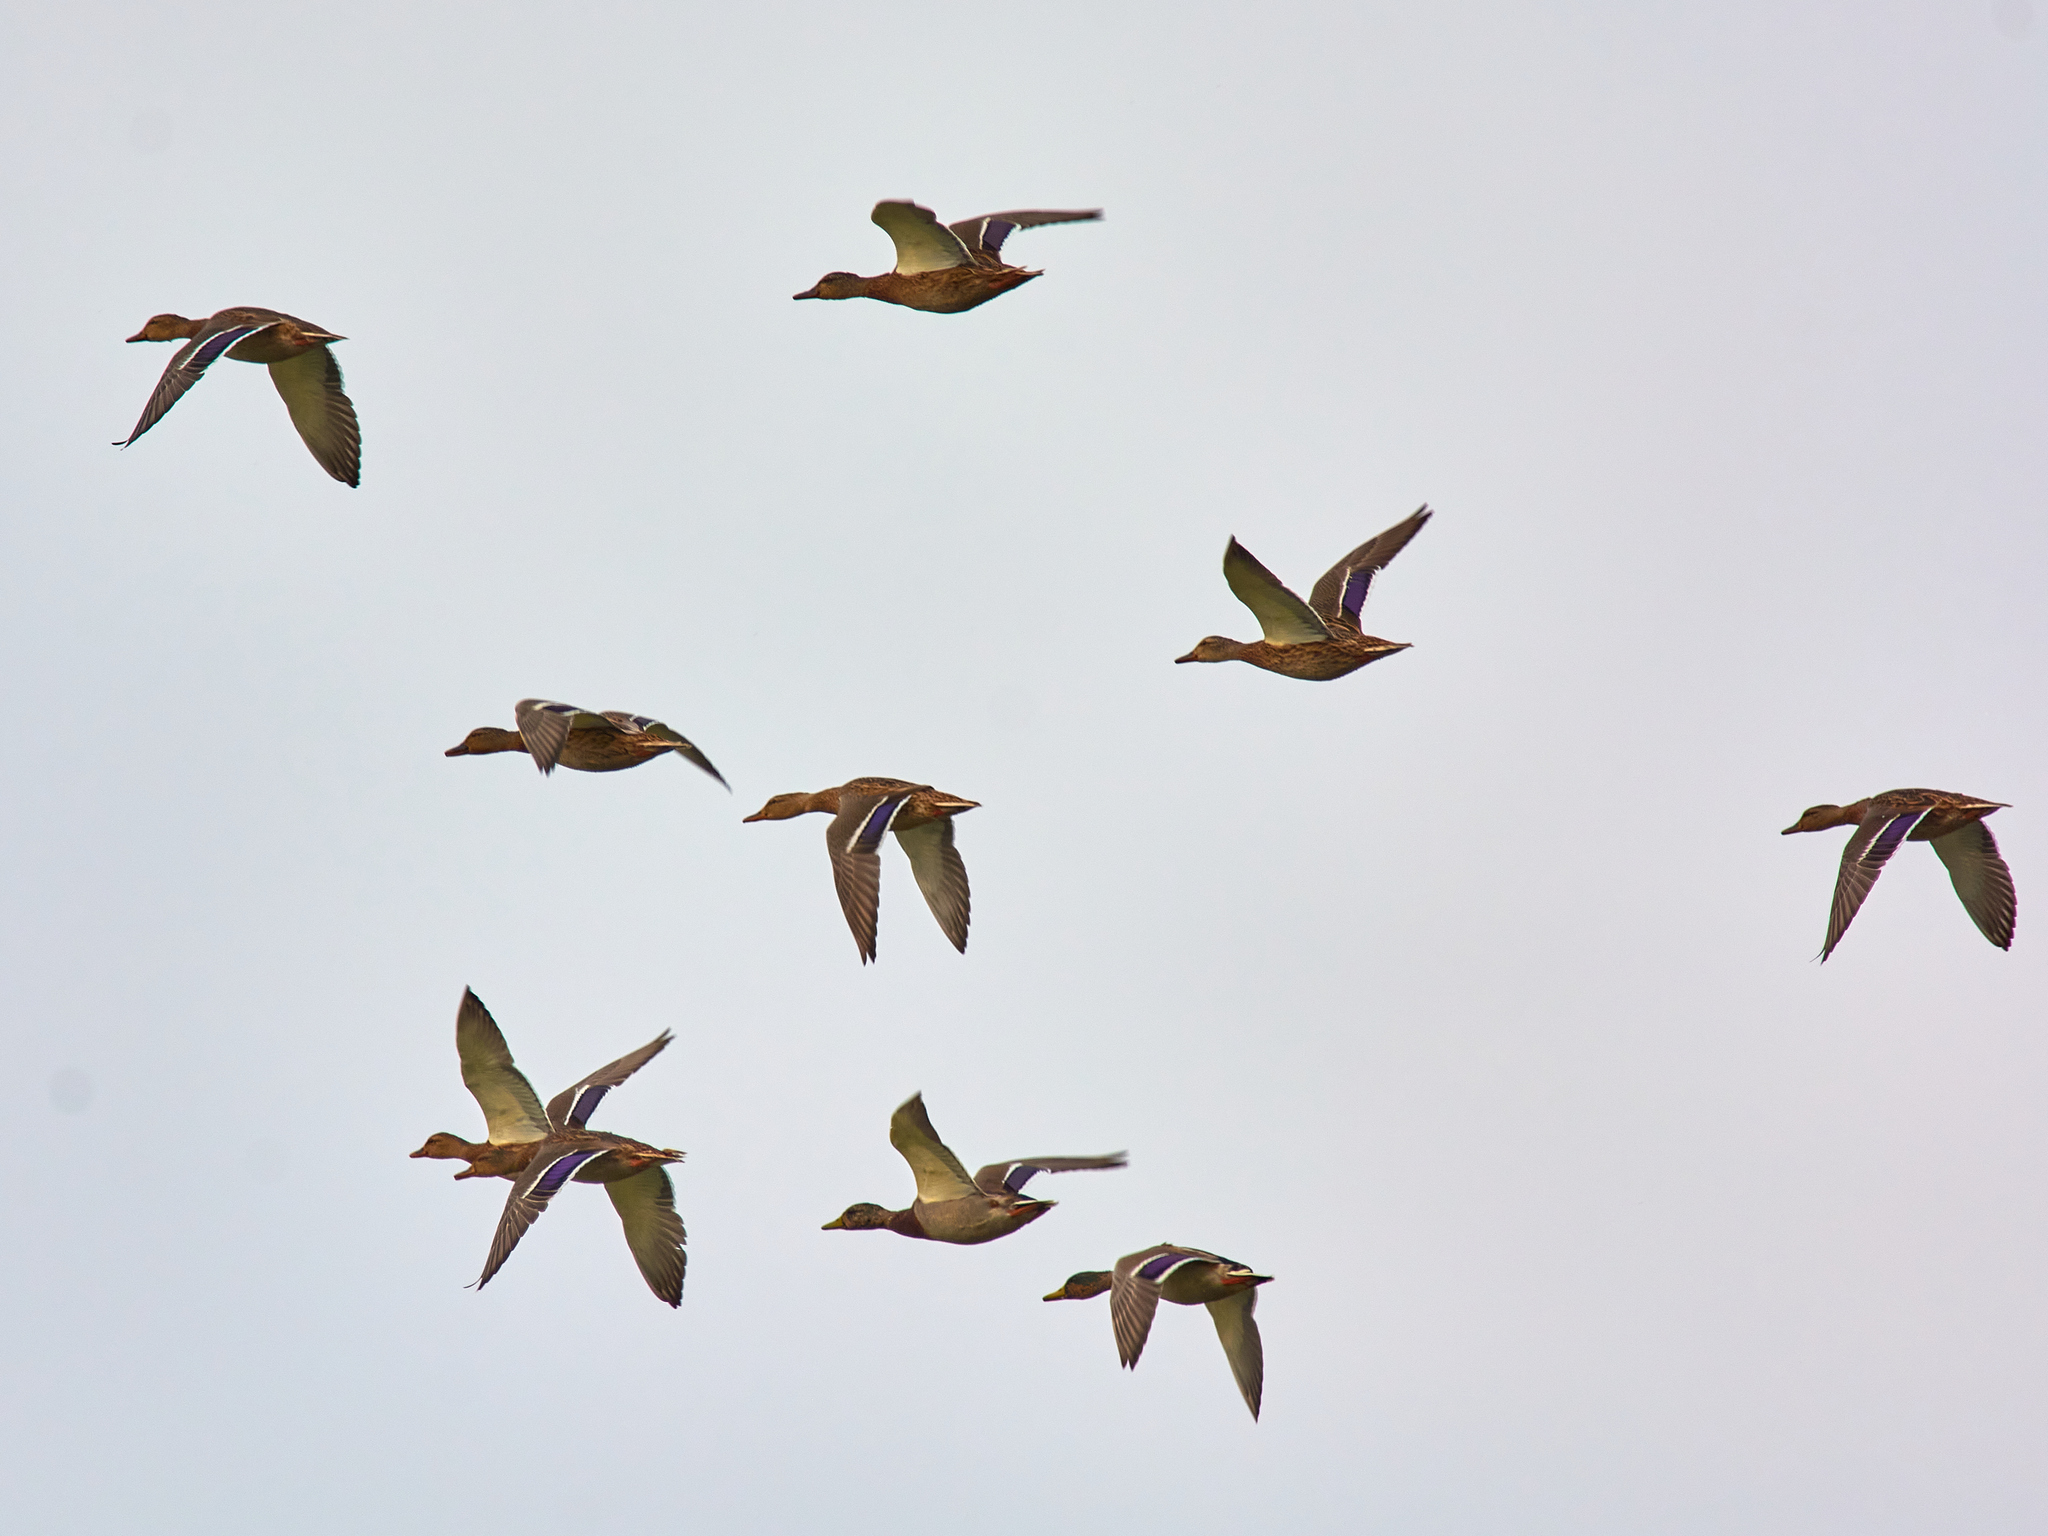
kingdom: Animalia
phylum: Chordata
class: Aves
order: Anseriformes
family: Anatidae
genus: Anas
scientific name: Anas platyrhynchos
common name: Mallard
